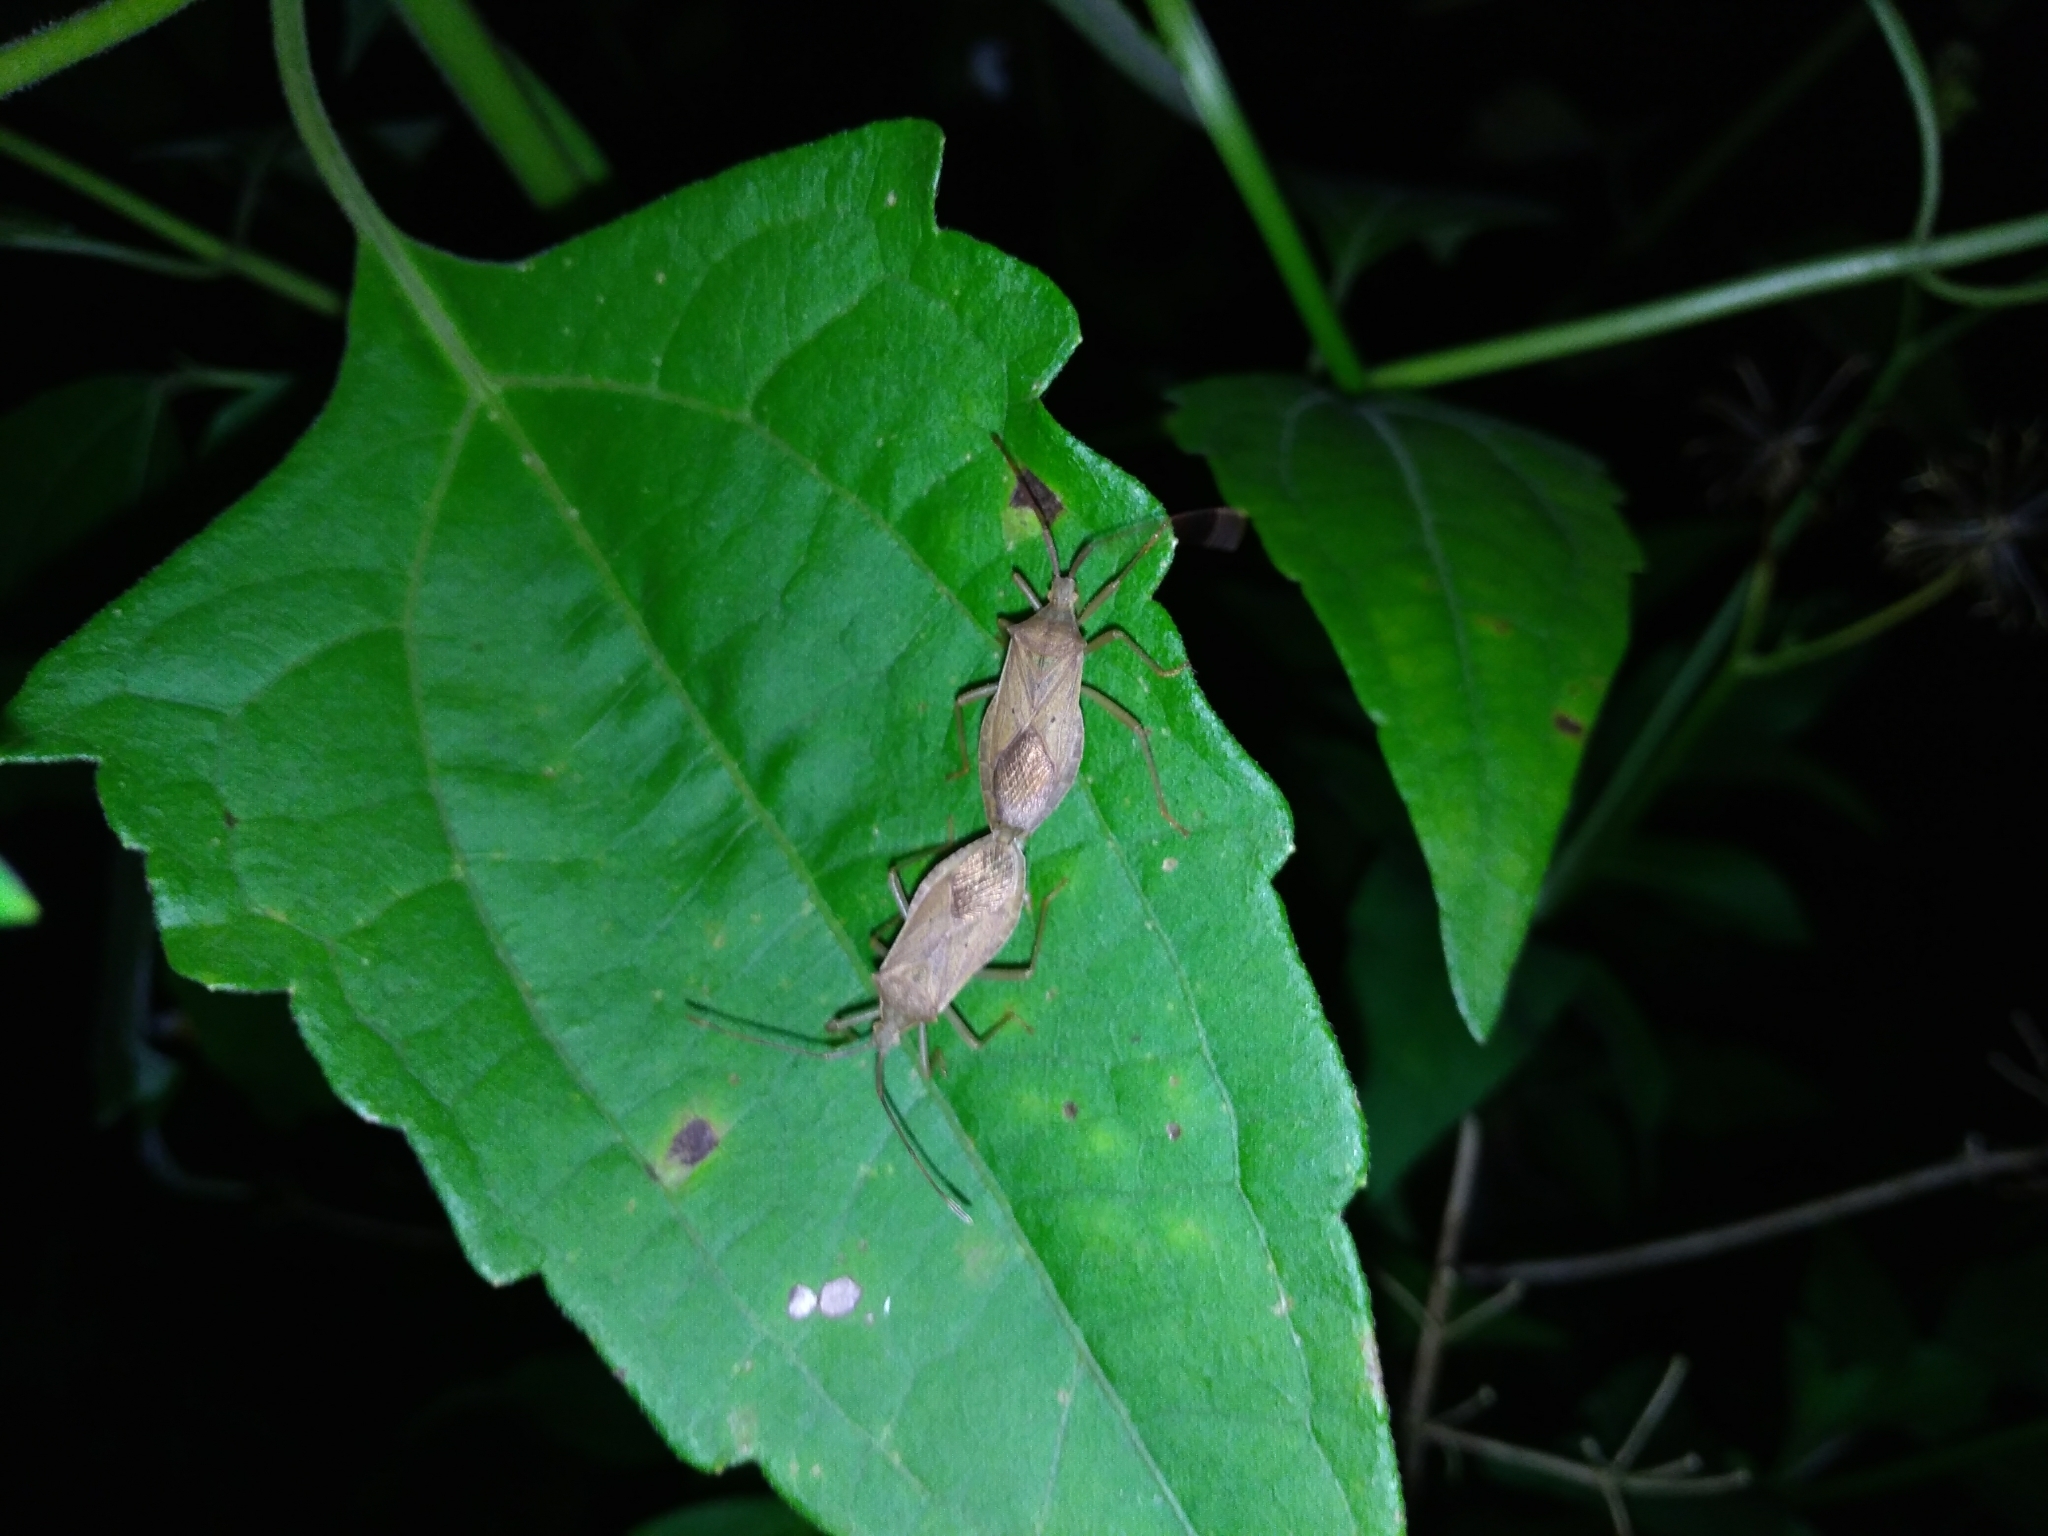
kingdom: Animalia
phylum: Arthropoda
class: Insecta
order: Hemiptera
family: Coreidae
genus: Homoeocerus
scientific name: Homoeocerus unipunctatus
